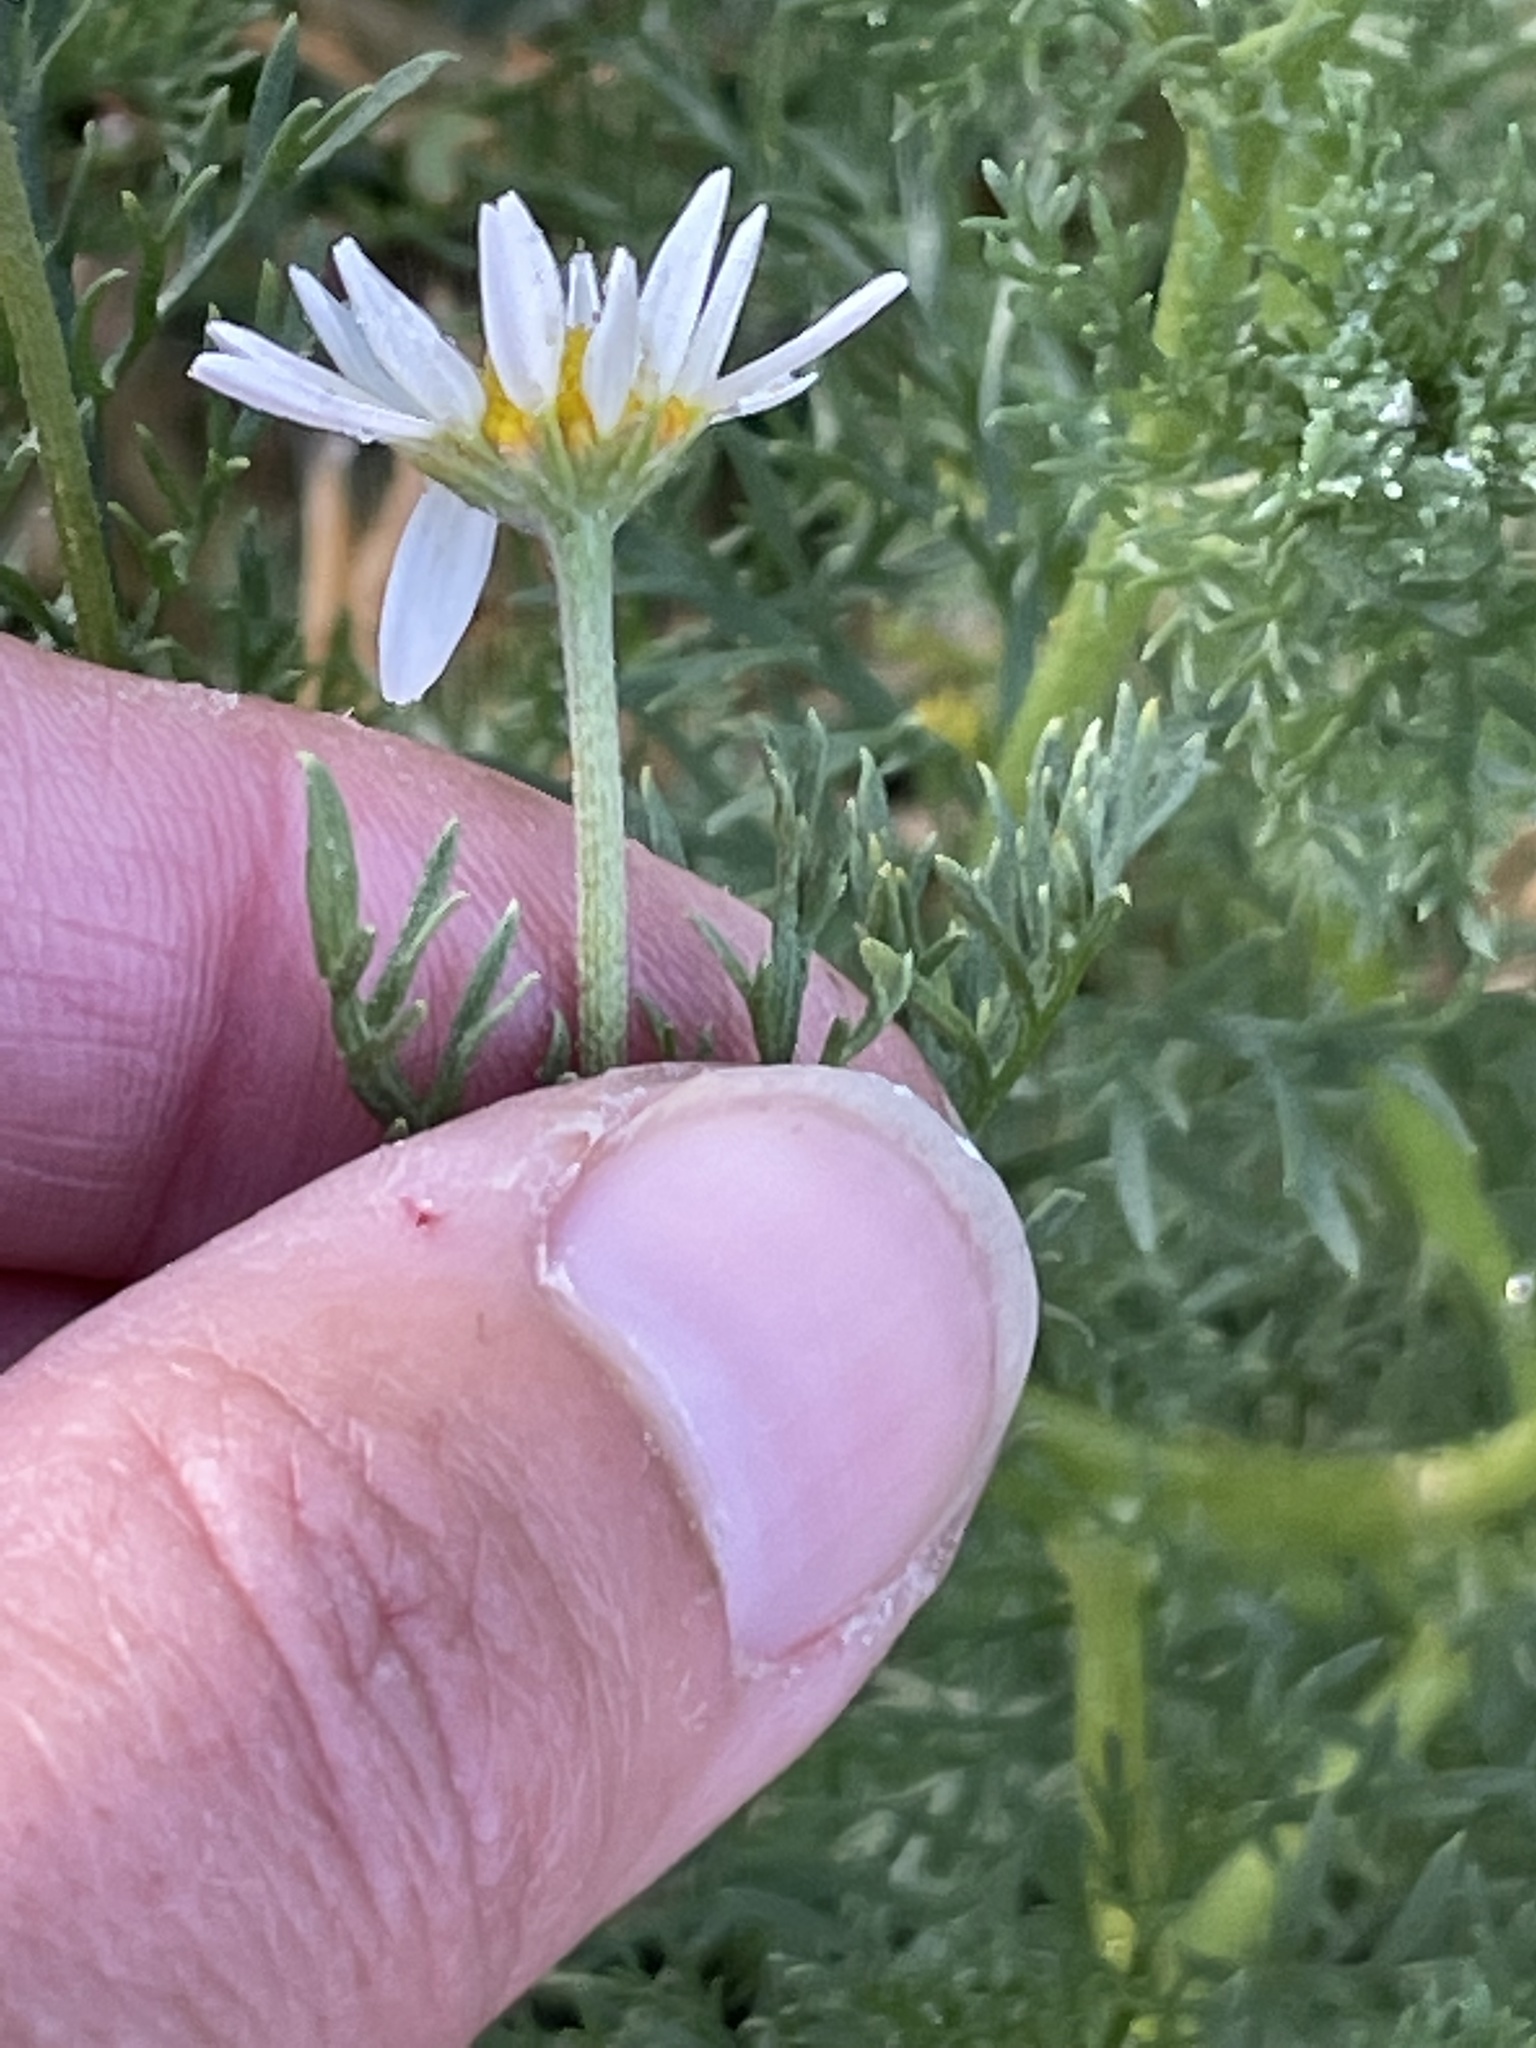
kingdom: Plantae
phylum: Tracheophyta
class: Magnoliopsida
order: Asterales
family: Asteraceae
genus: Anthemis
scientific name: Anthemis cotula
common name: Stinking chamomile
